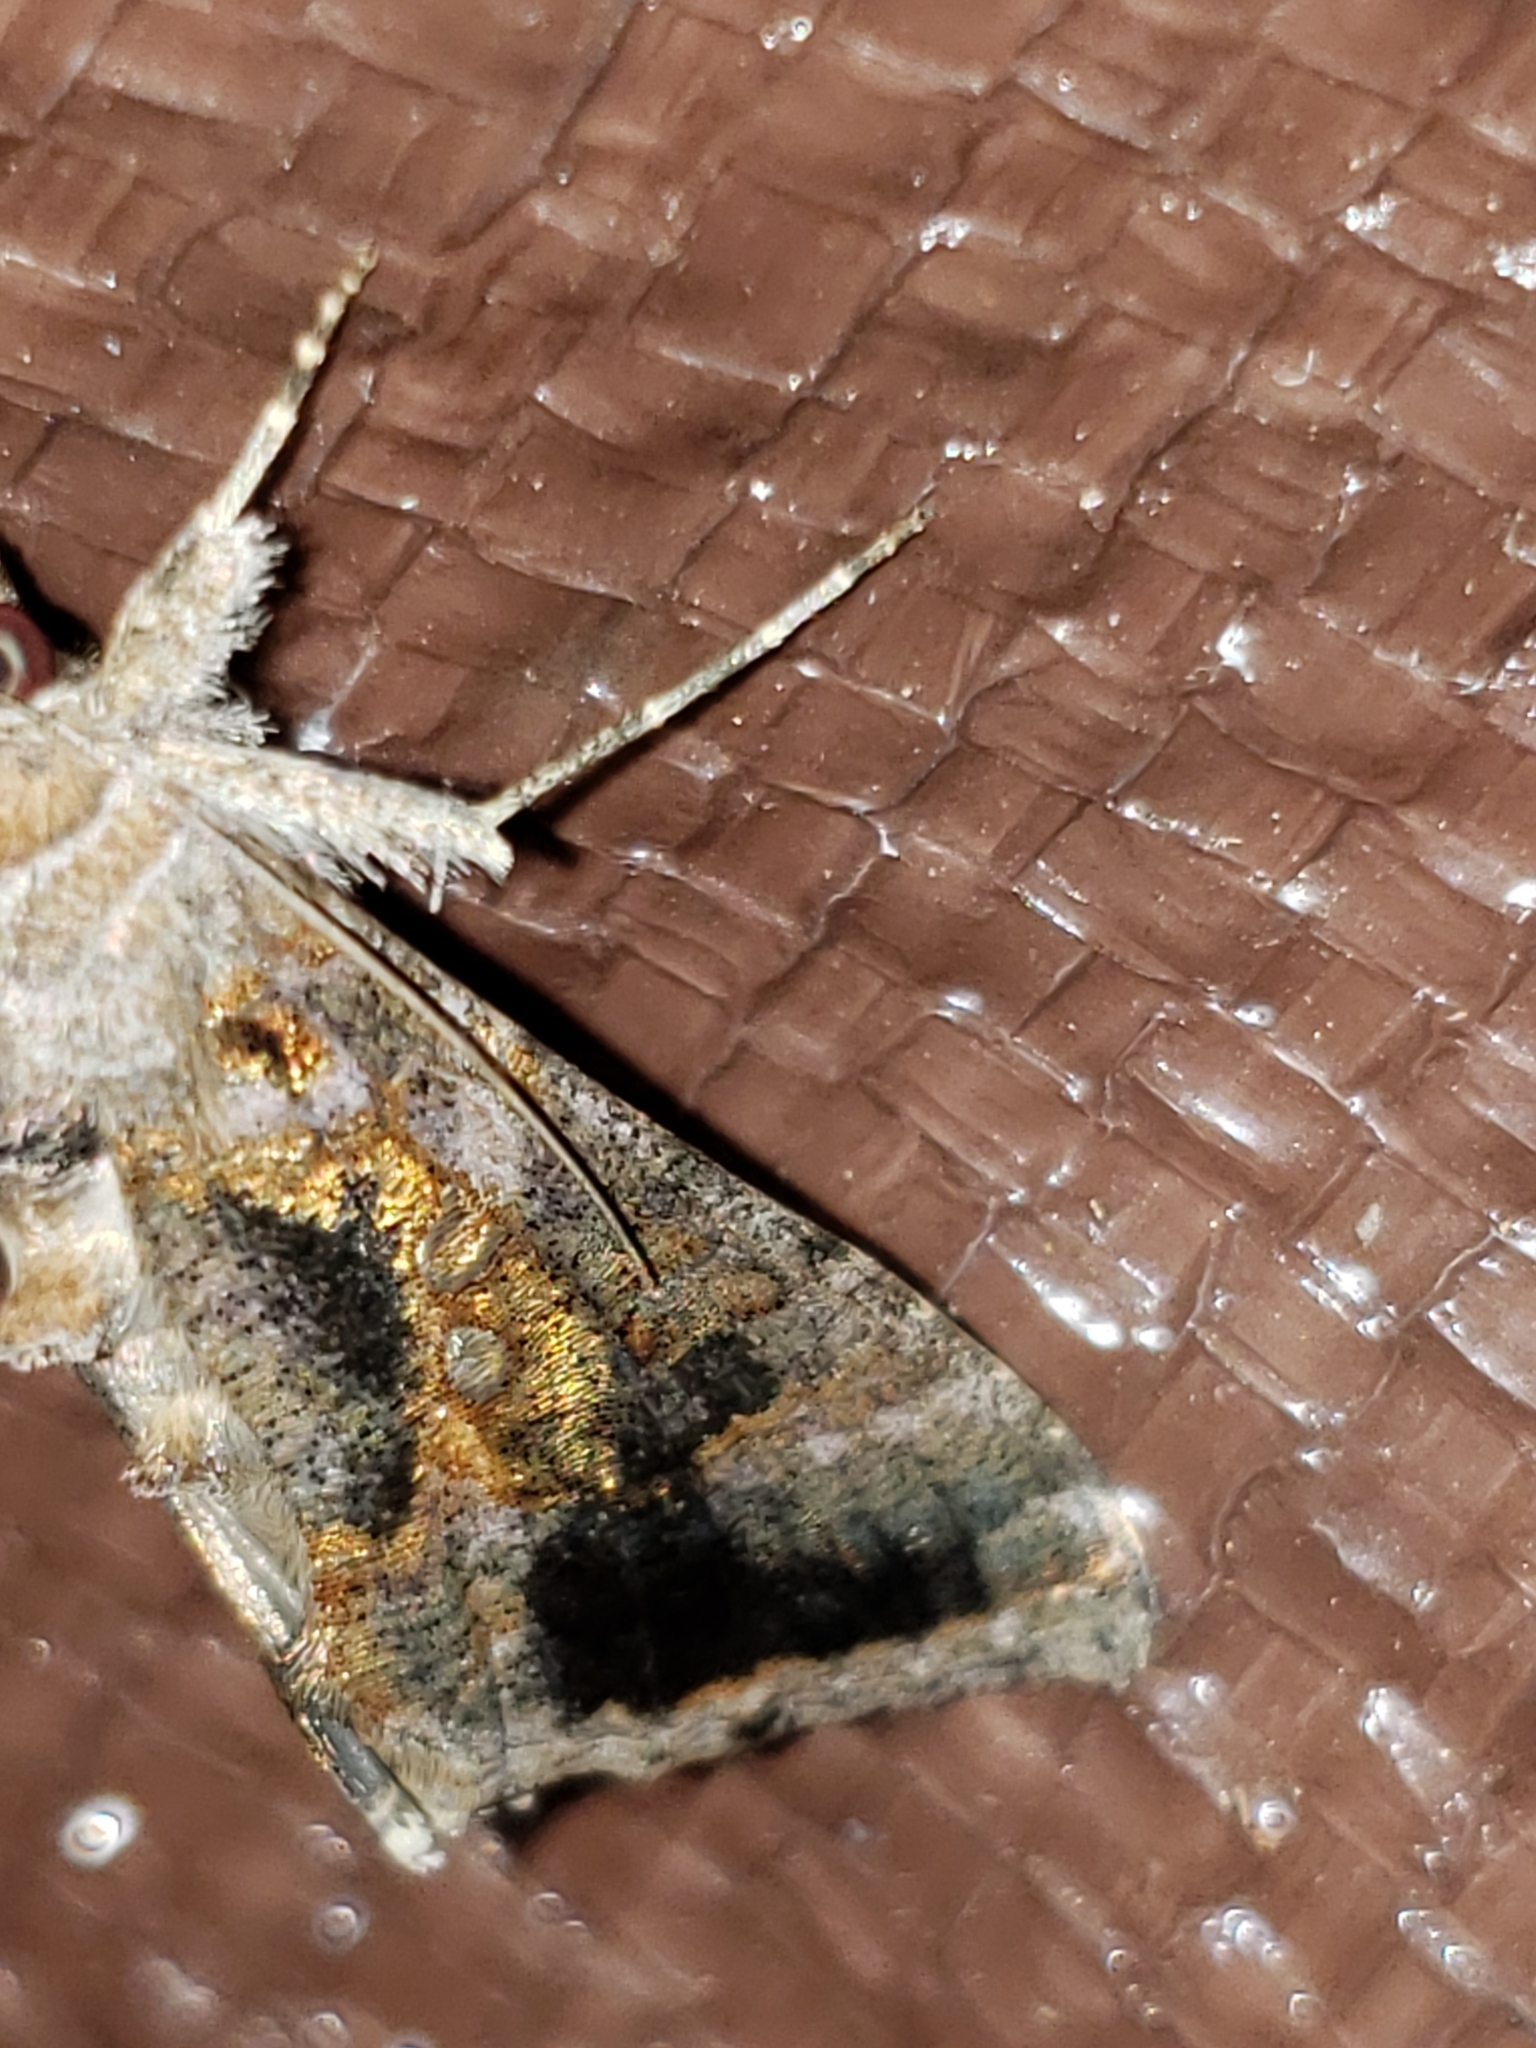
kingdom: Animalia
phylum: Arthropoda
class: Insecta
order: Lepidoptera
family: Noctuidae
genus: Chrysodeixis
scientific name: Chrysodeixis includens
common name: Cutworm moth
